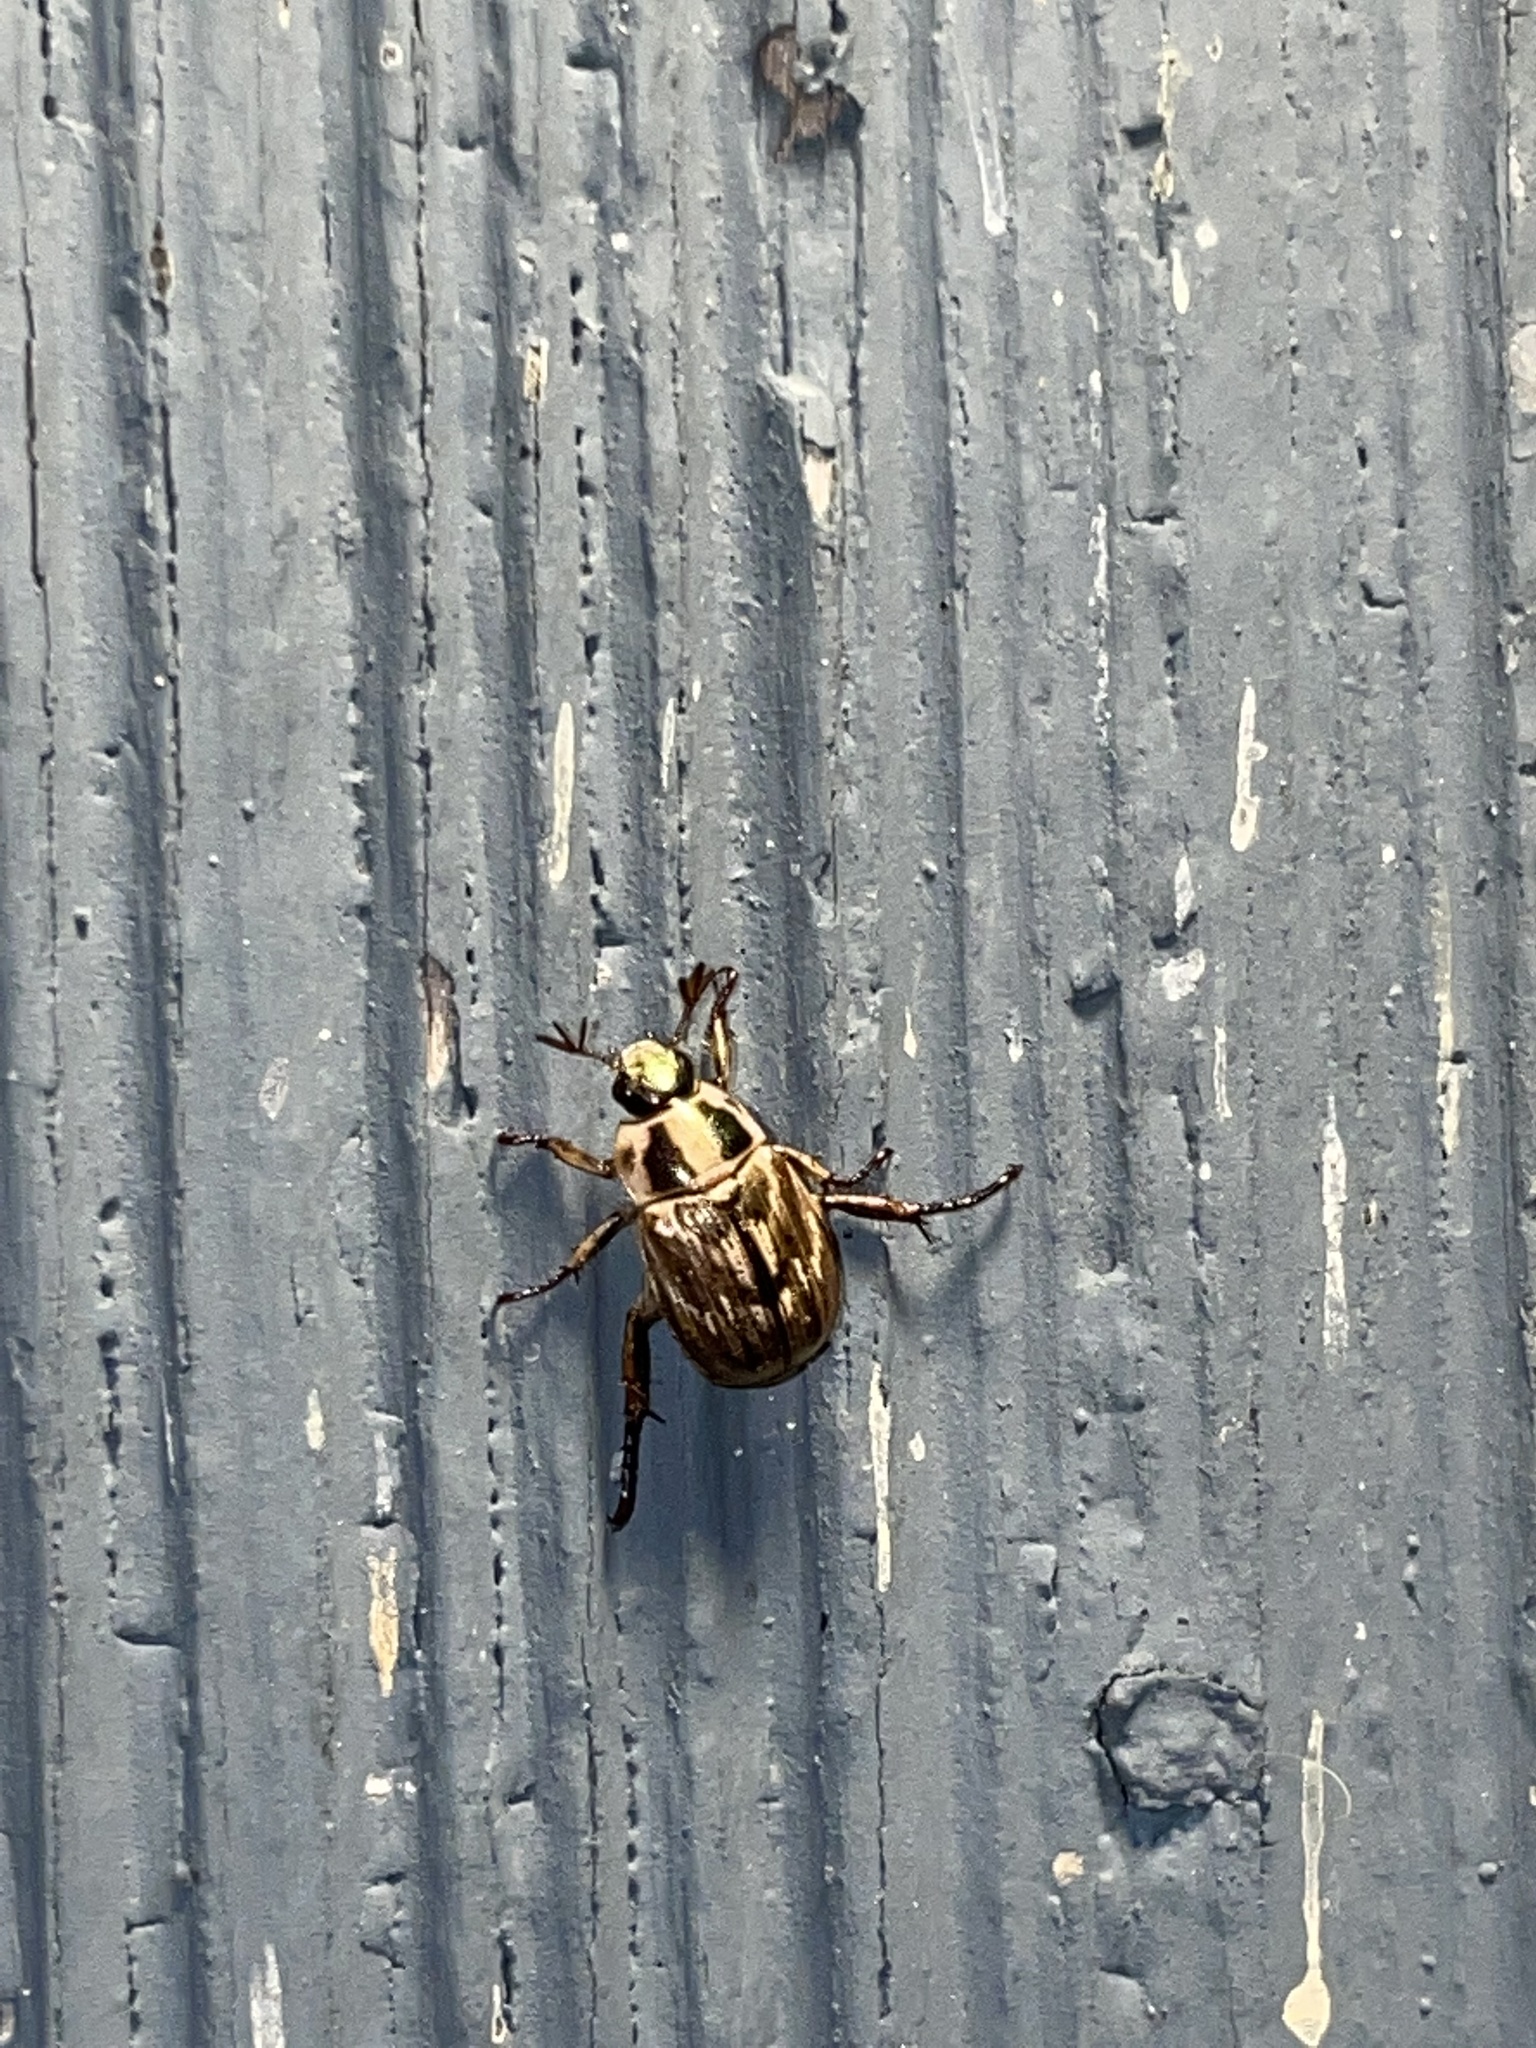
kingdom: Animalia
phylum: Arthropoda
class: Insecta
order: Coleoptera
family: Scarabaeidae
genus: Exomala
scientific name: Exomala orientalis
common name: Oriental beetle
